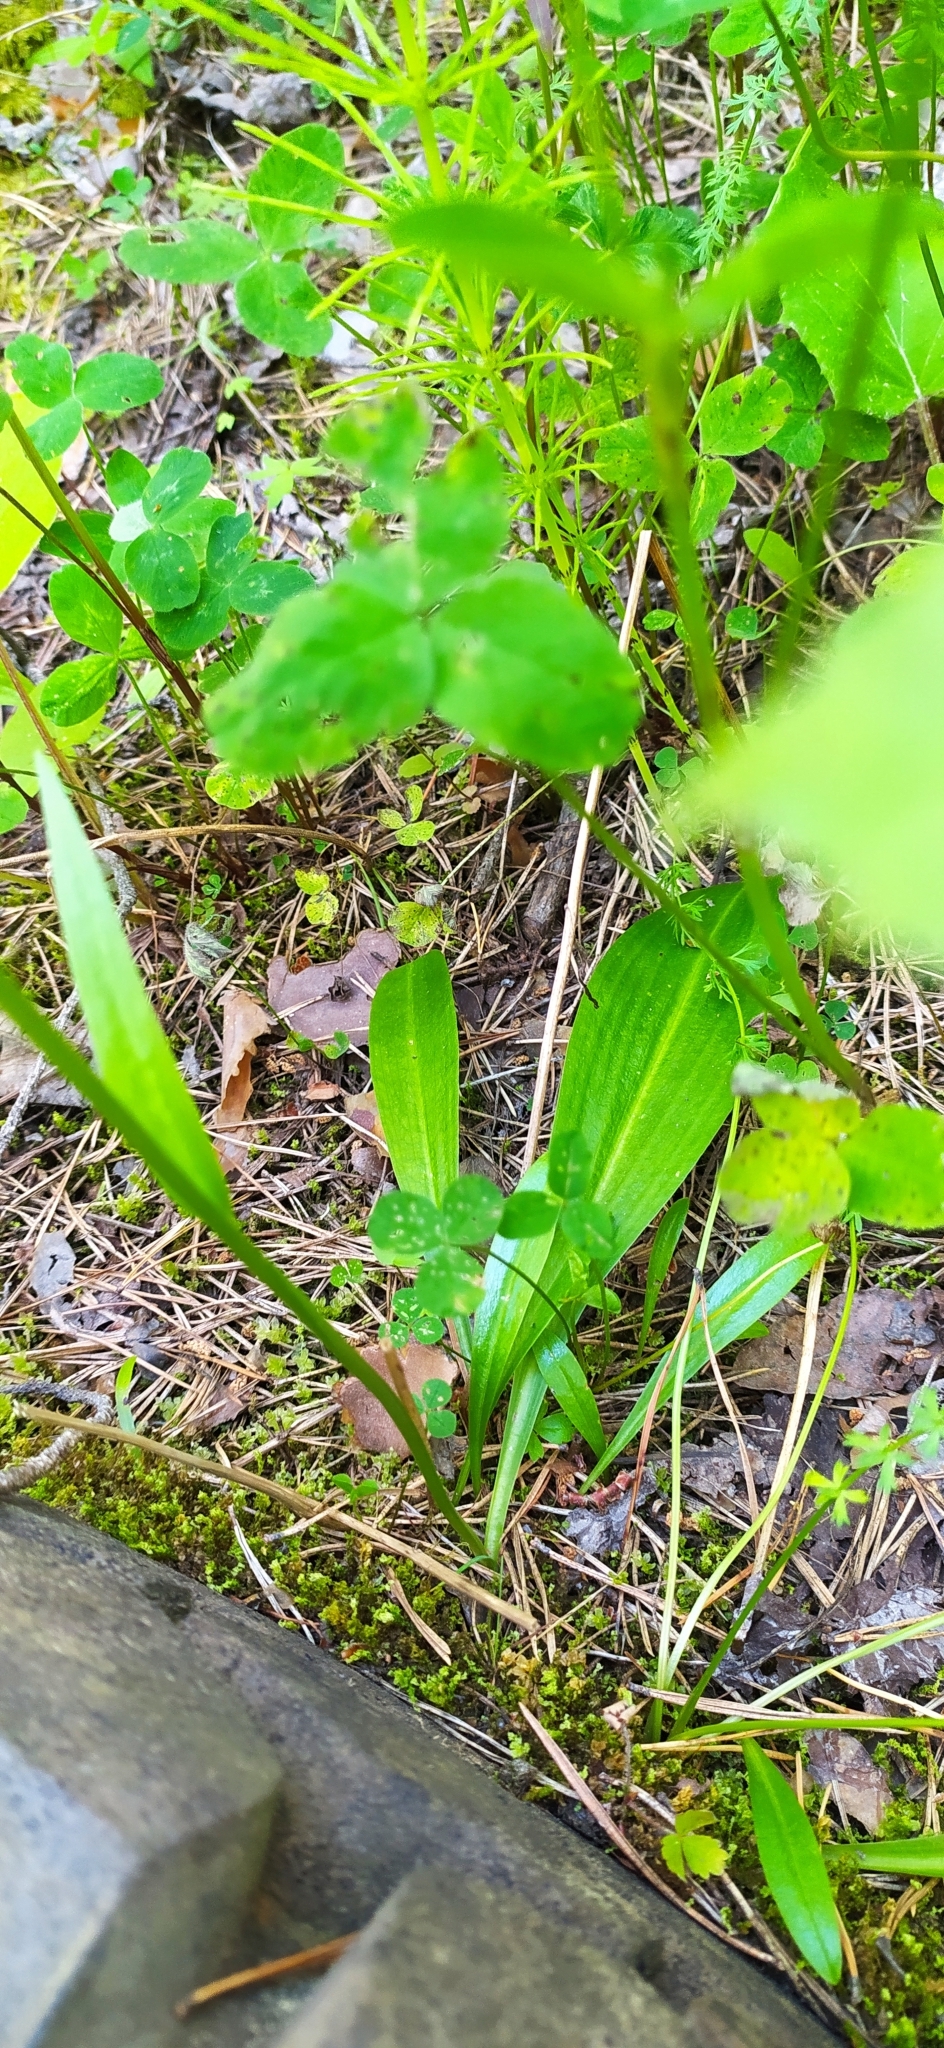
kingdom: Plantae
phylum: Tracheophyta
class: Liliopsida
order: Asparagales
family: Orchidaceae
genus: Platanthera
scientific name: Platanthera bifolia
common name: Lesser butterfly-orchid
